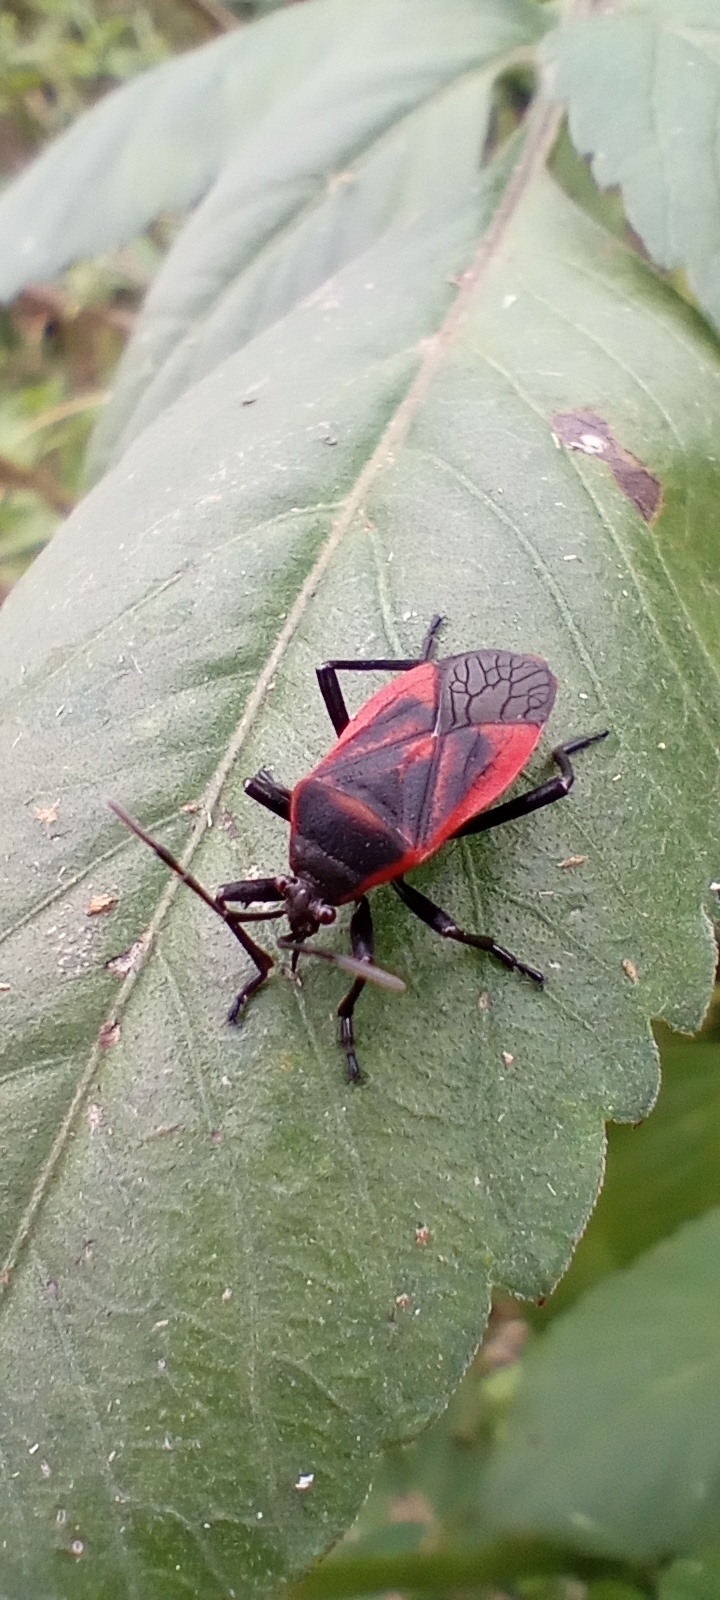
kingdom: Animalia
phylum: Arthropoda
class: Insecta
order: Hemiptera
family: Largidae
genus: Largus
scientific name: Largus rufipennis
